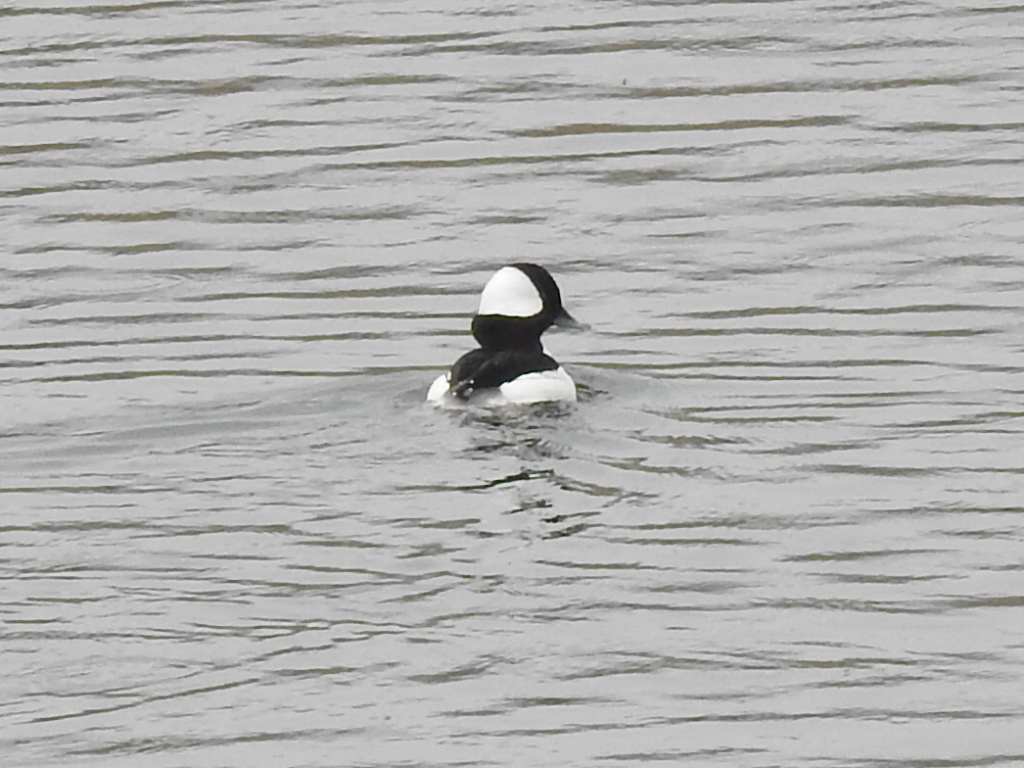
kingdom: Animalia
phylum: Chordata
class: Aves
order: Anseriformes
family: Anatidae
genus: Bucephala
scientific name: Bucephala albeola
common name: Bufflehead
